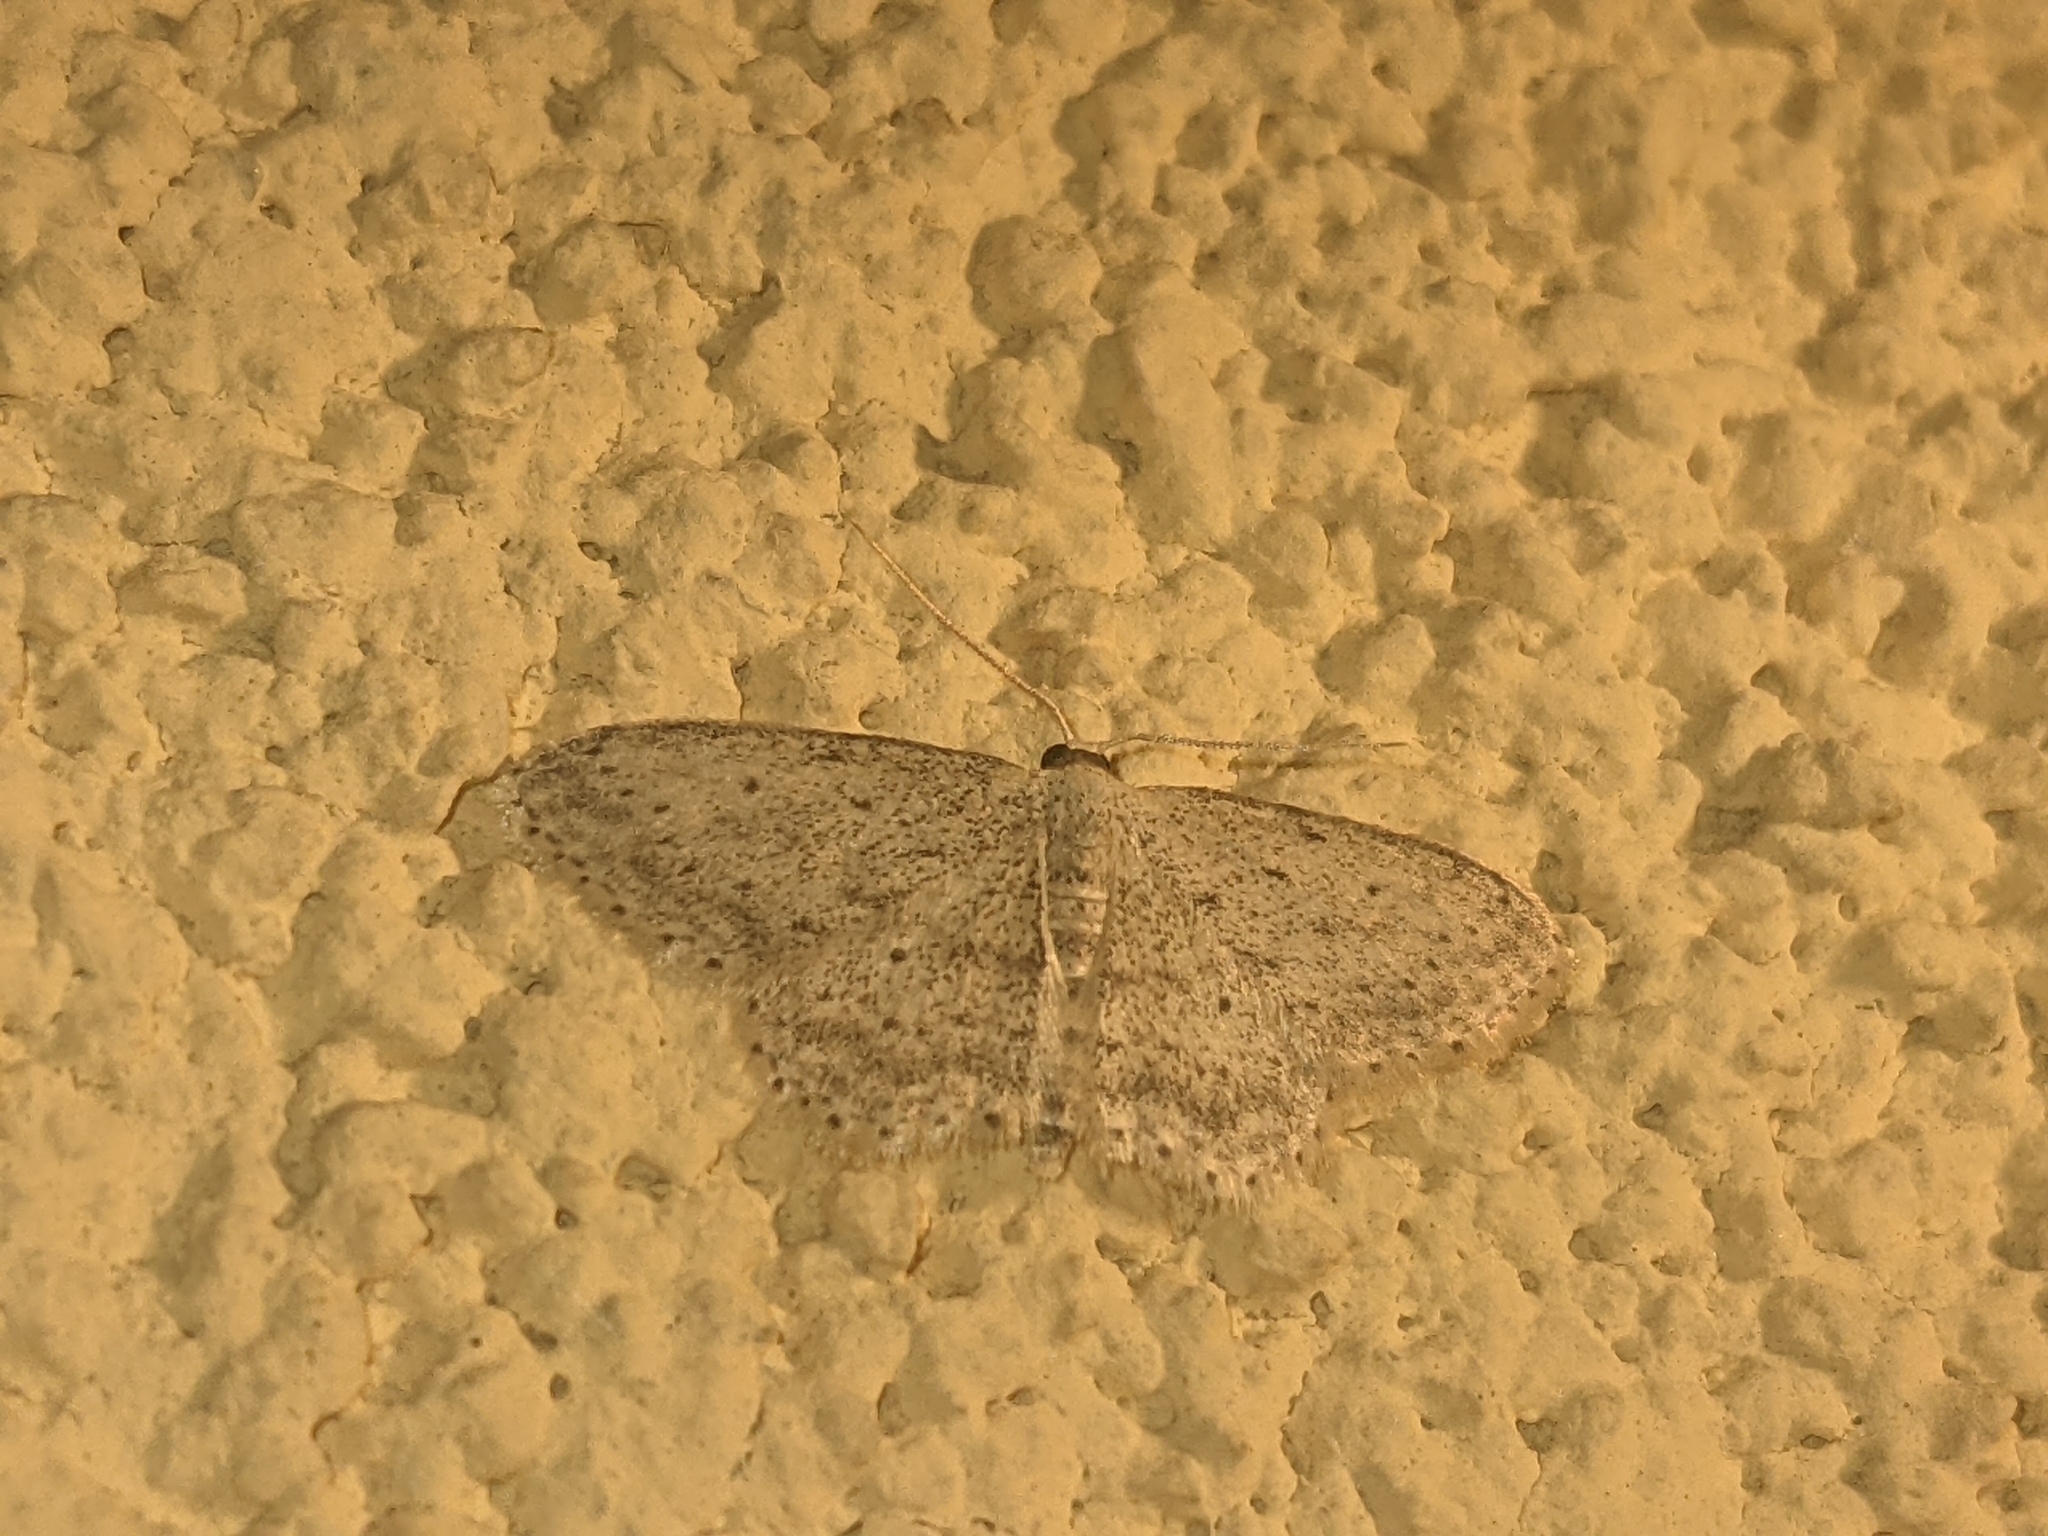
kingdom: Animalia
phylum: Arthropoda
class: Insecta
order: Lepidoptera
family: Geometridae
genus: Idaea
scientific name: Idaea seriata
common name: Small dusty wave
